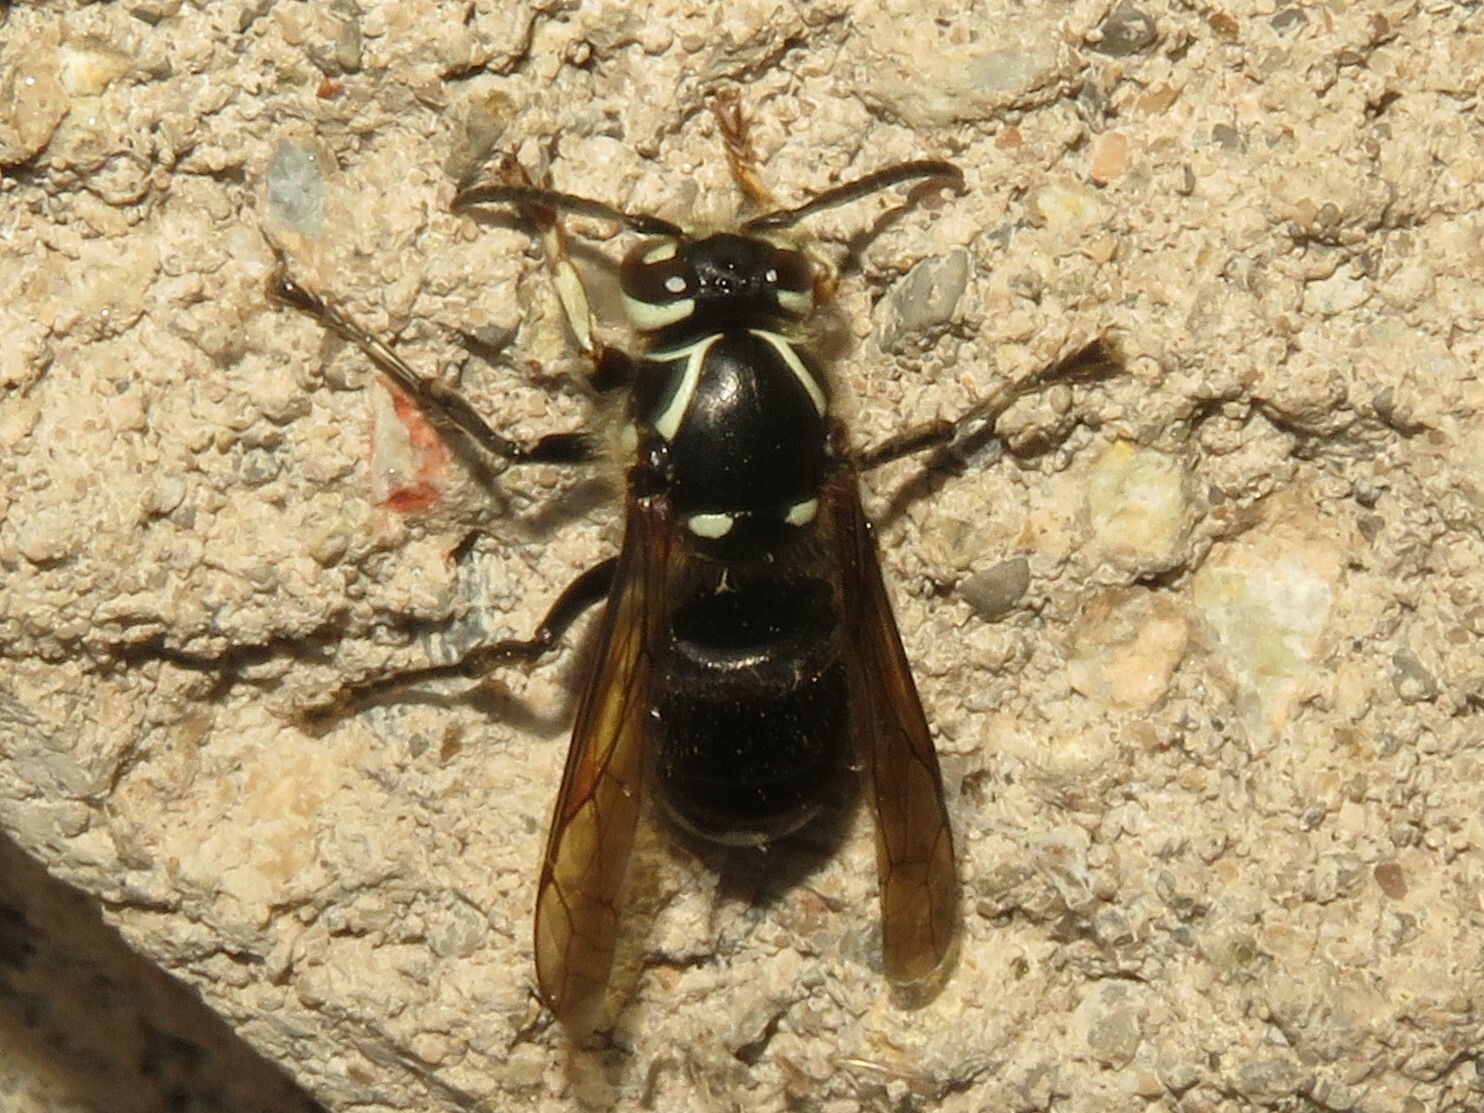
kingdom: Animalia
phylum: Arthropoda
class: Insecta
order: Hymenoptera
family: Vespidae
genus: Dolichovespula
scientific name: Dolichovespula maculata
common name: Bald-faced hornet
